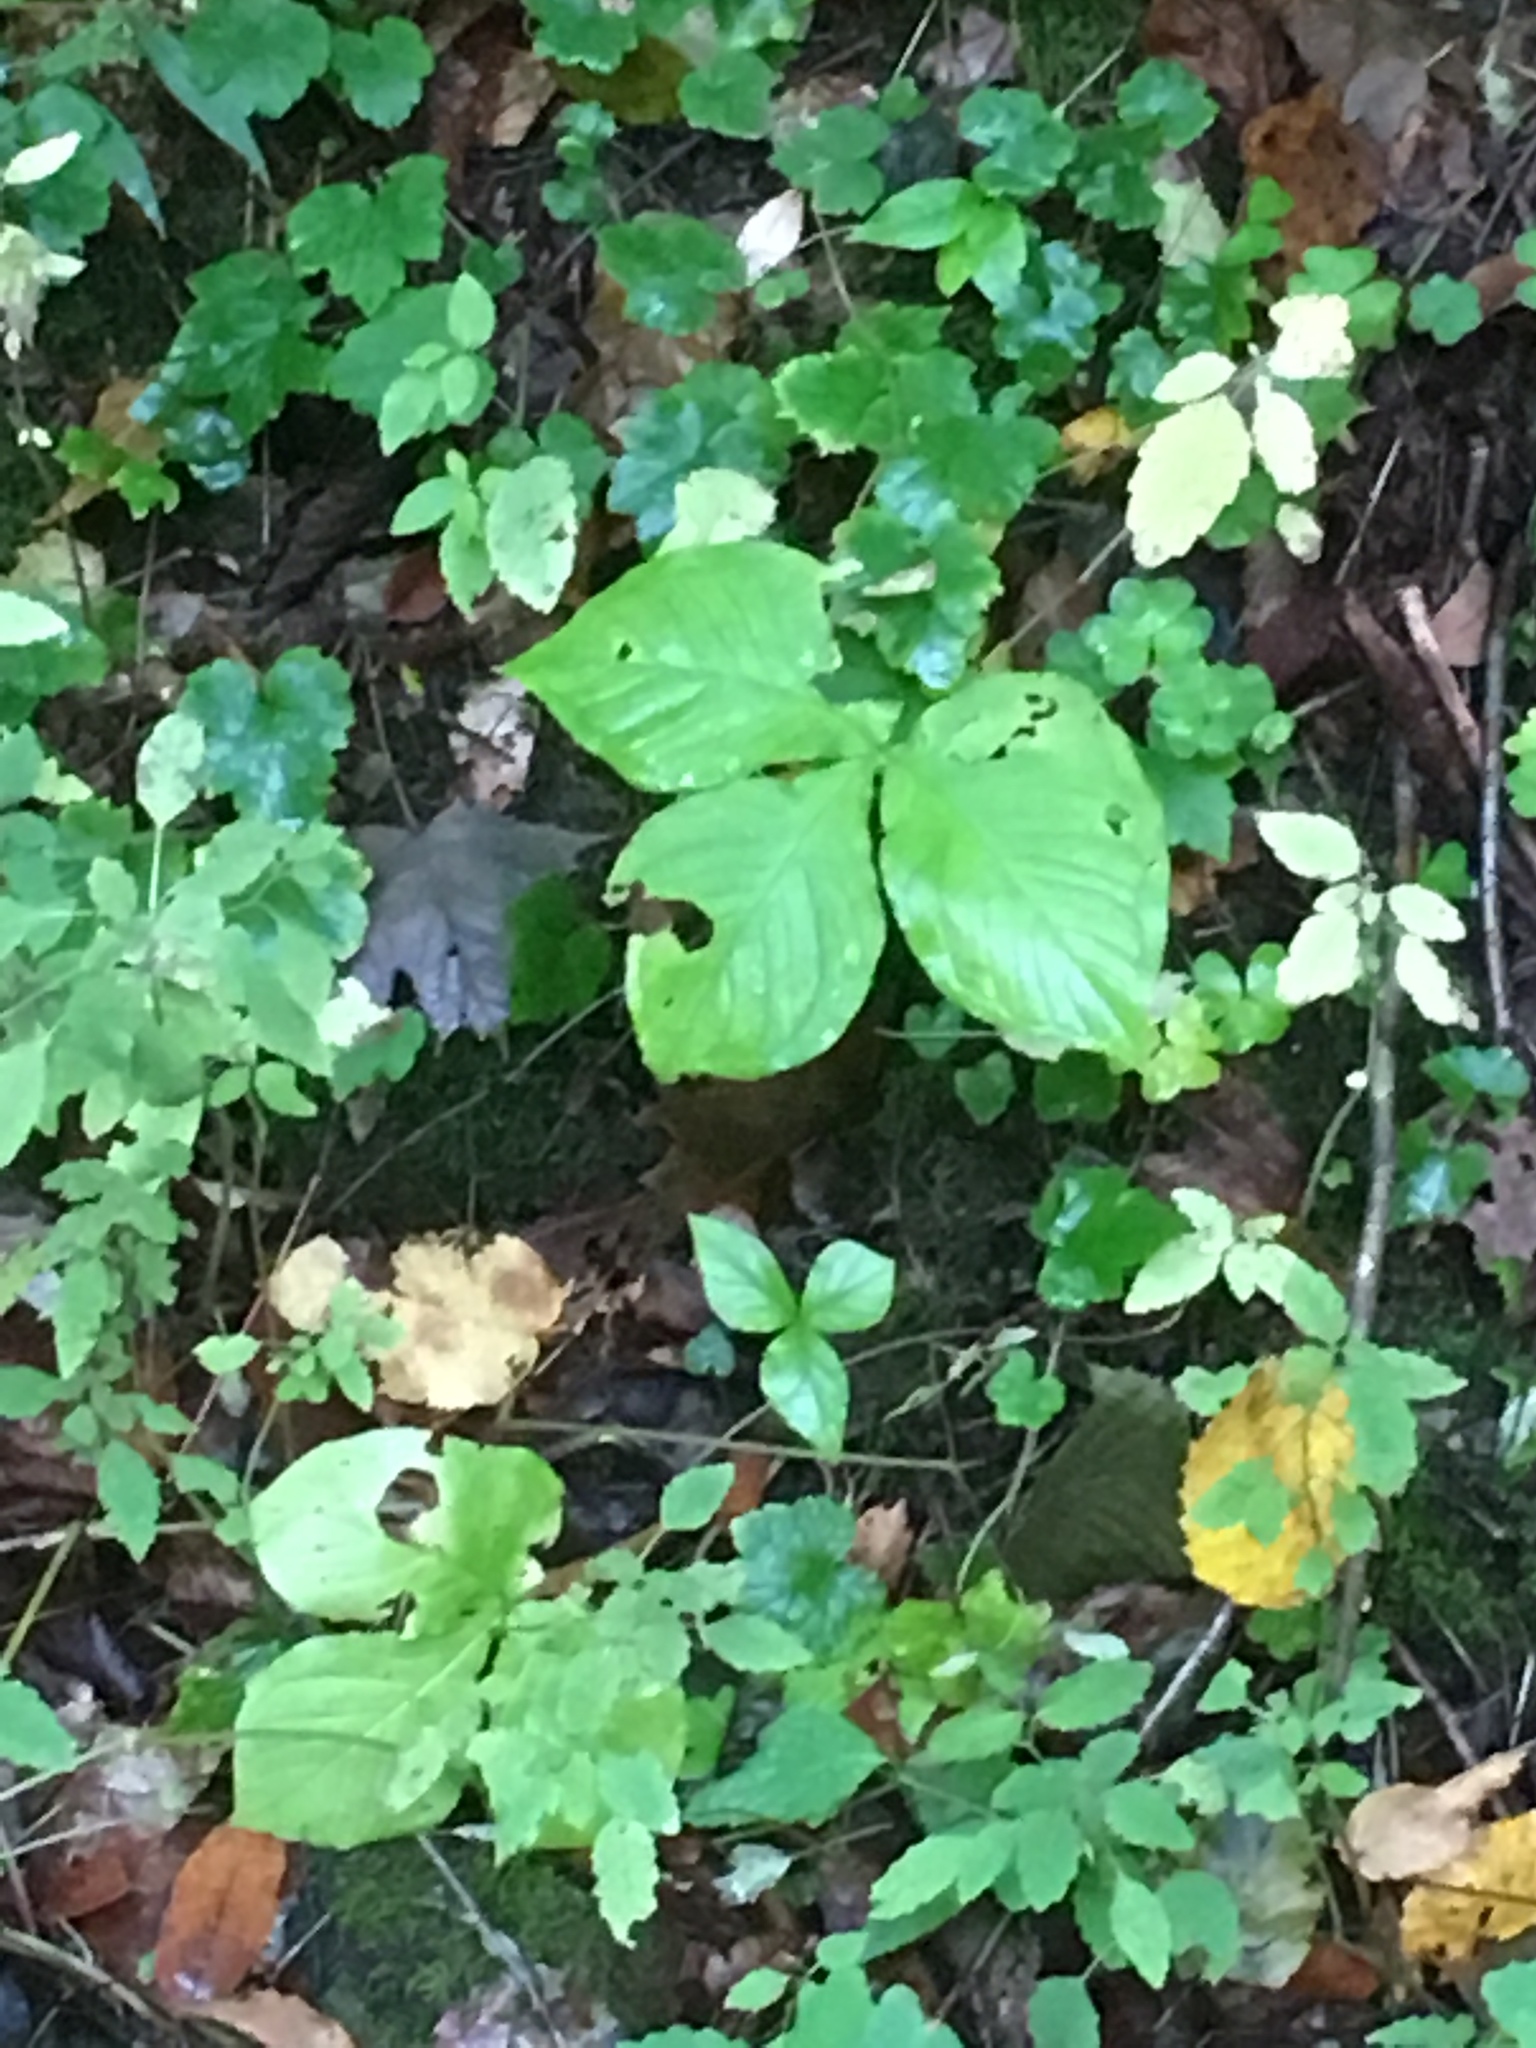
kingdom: Plantae
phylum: Tracheophyta
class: Liliopsida
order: Alismatales
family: Araceae
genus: Arisaema
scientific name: Arisaema triphyllum
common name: Jack-in-the-pulpit
